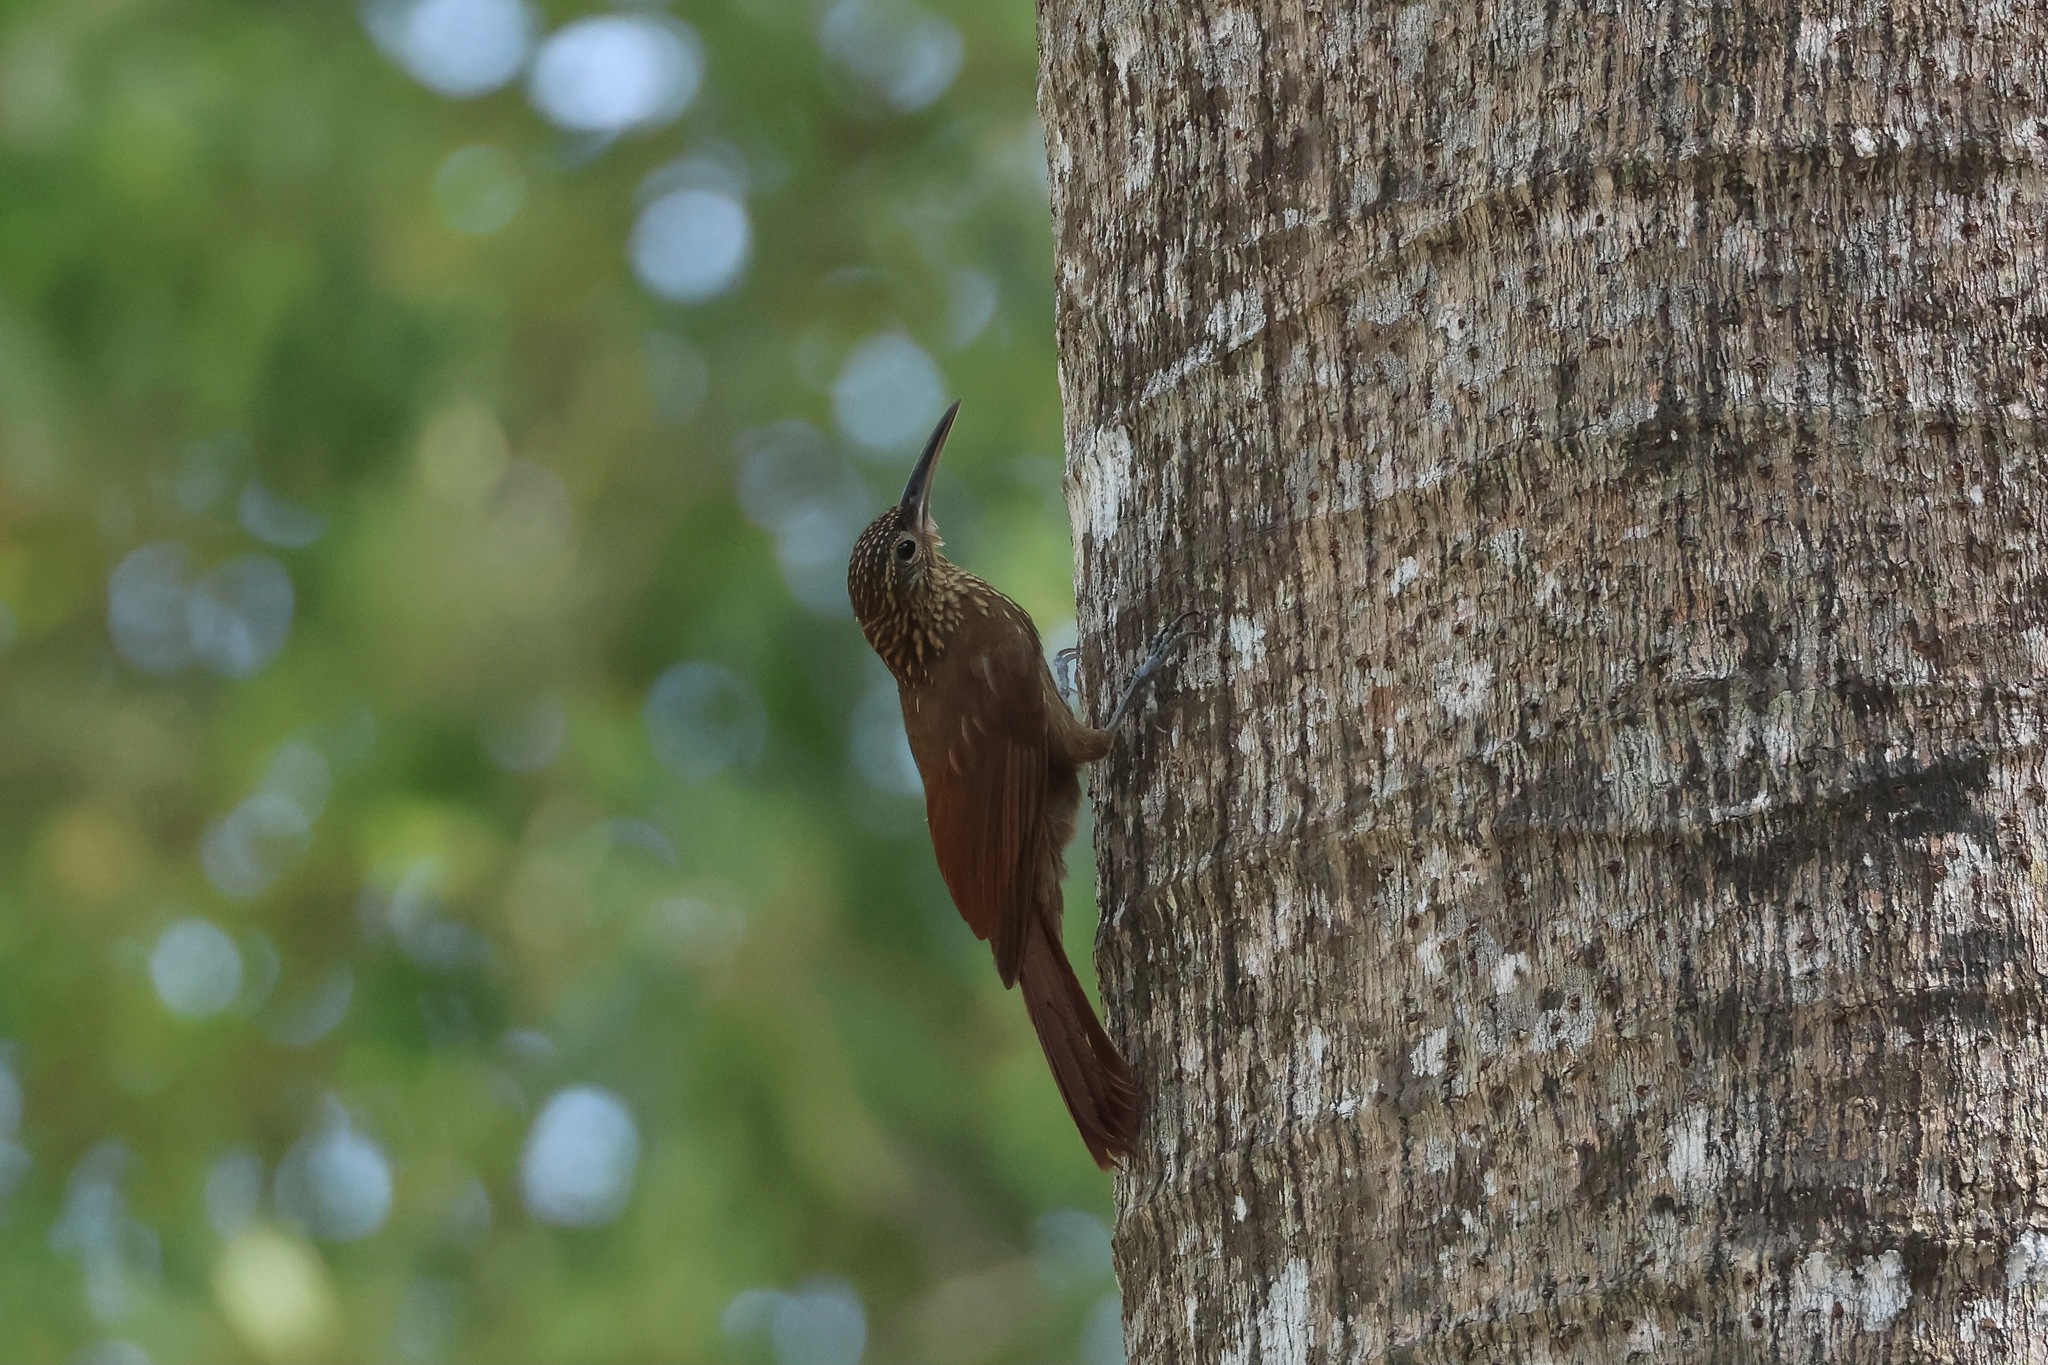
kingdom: Animalia
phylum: Chordata
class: Aves
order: Passeriformes
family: Furnariidae
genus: Xiphorhynchus
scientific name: Xiphorhynchus susurrans
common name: Cocoa woodcreeper
